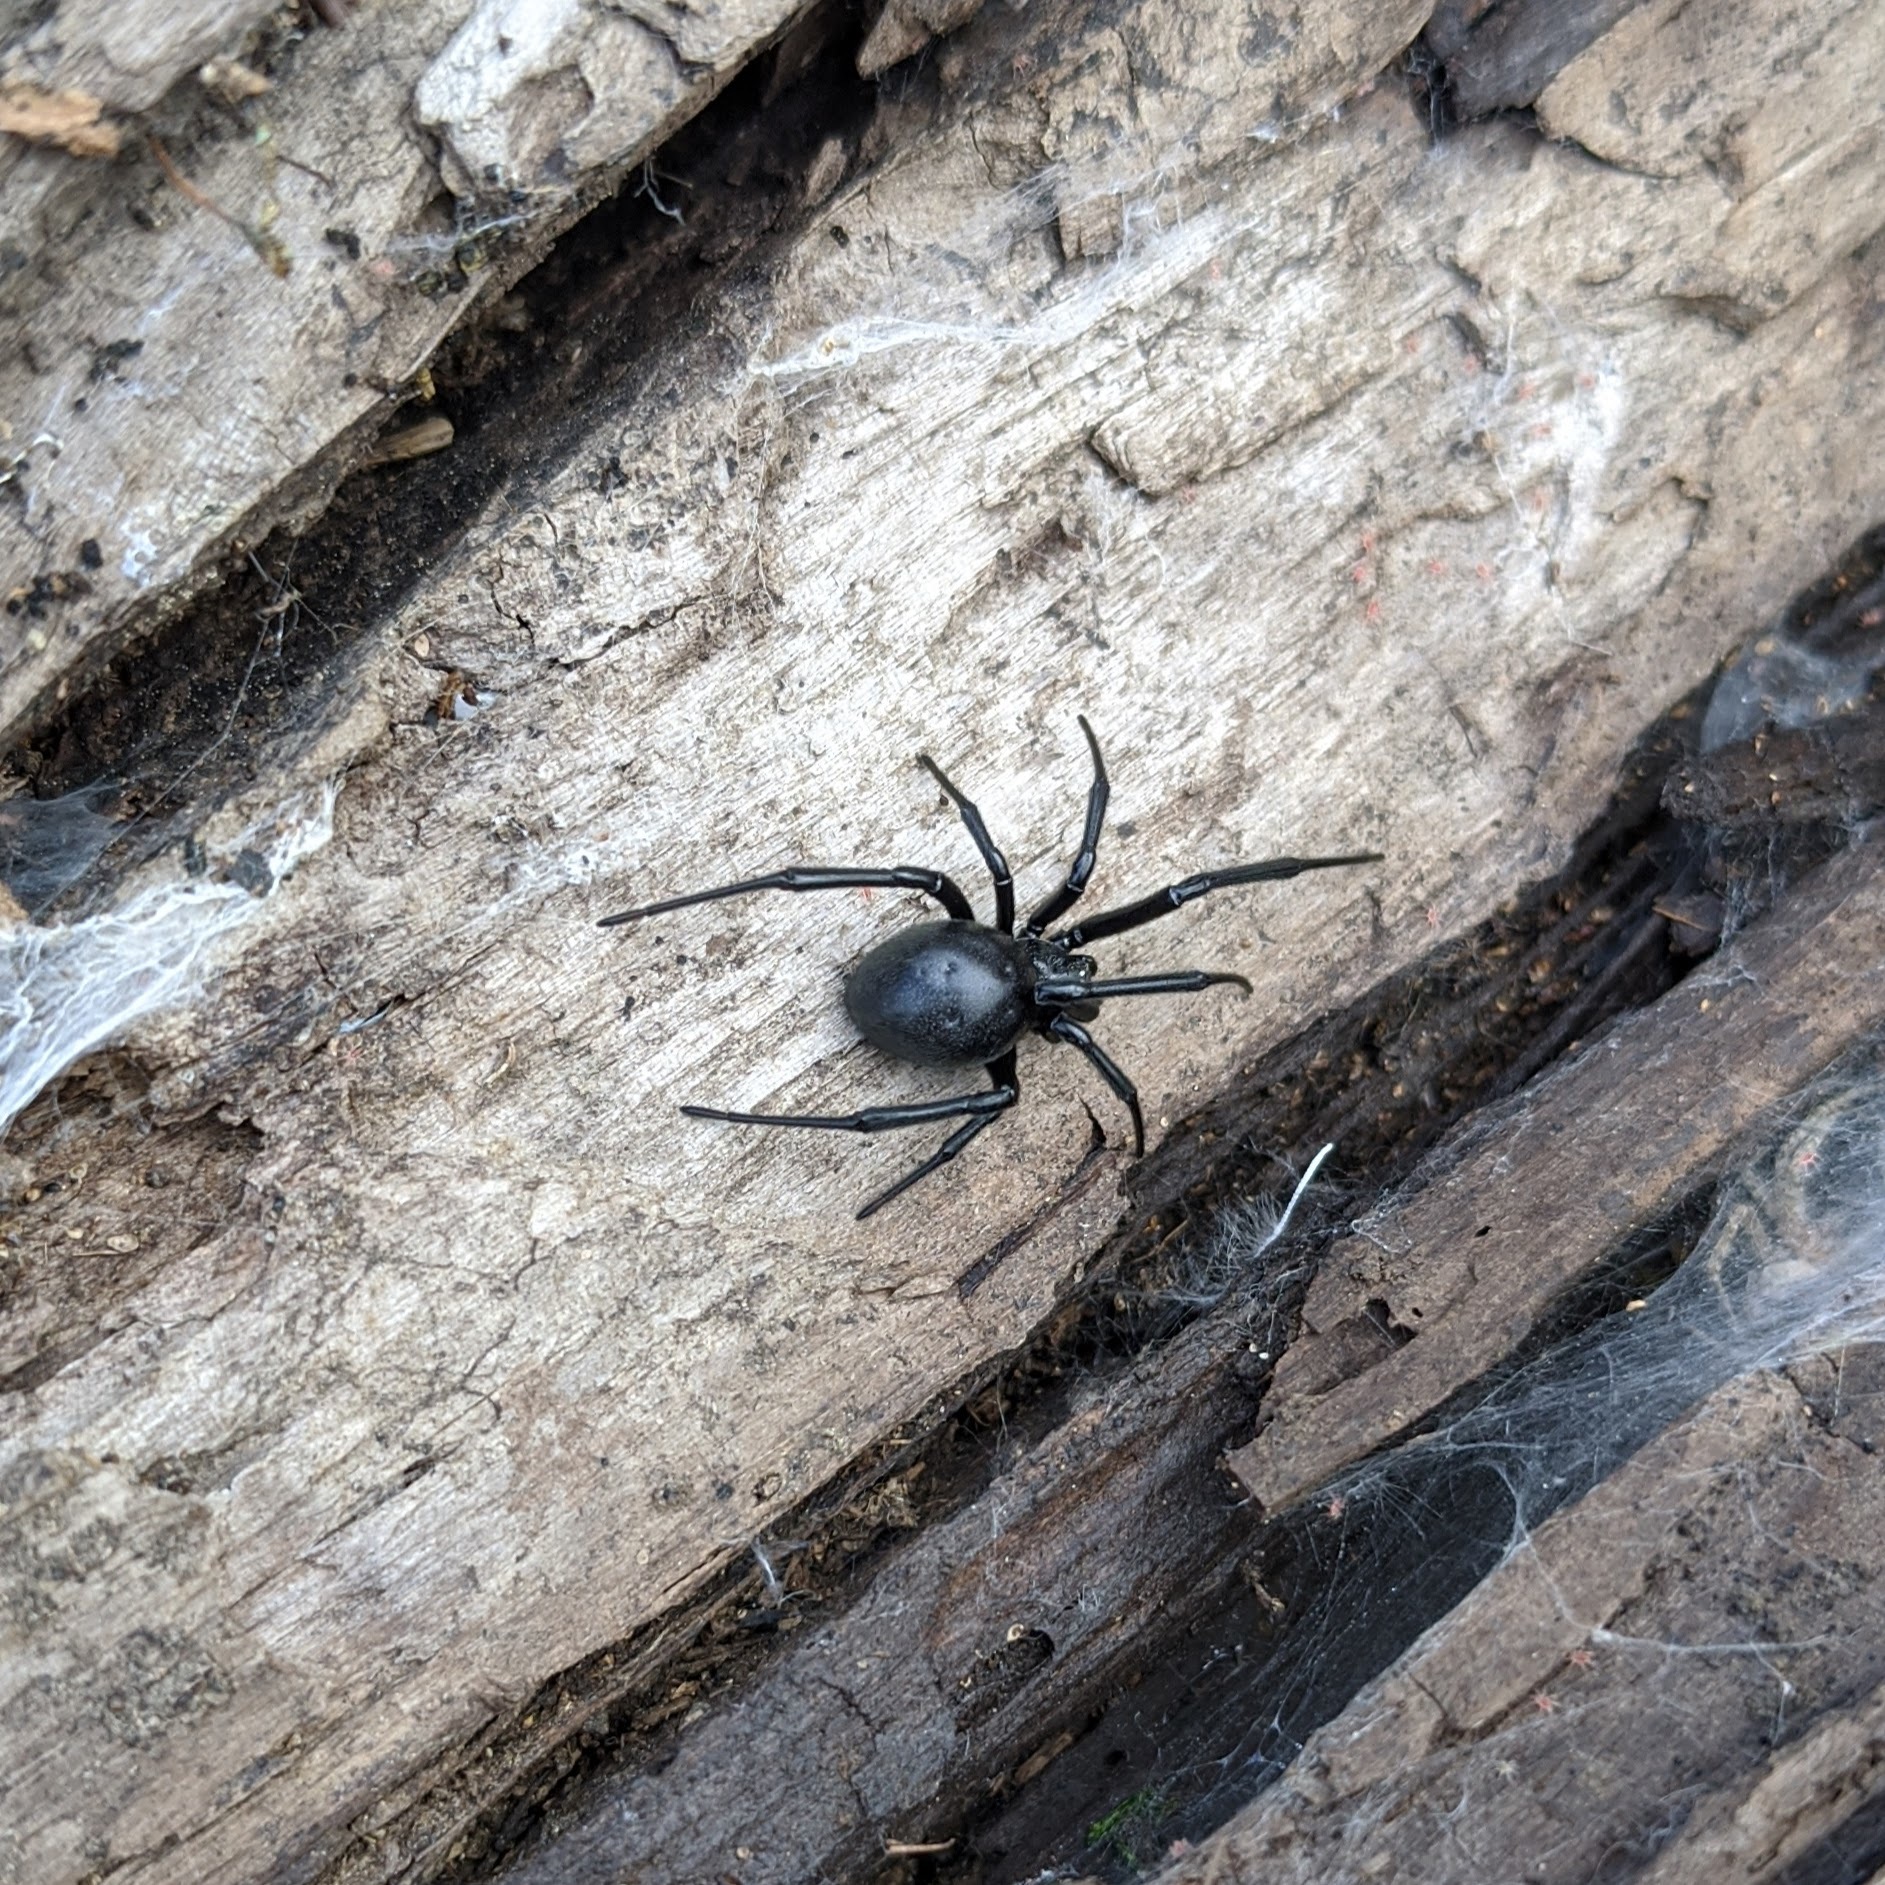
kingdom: Animalia
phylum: Arthropoda
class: Arachnida
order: Araneae
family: Theridiidae
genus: Latrodectus
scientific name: Latrodectus hesperus
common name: Western black widow
